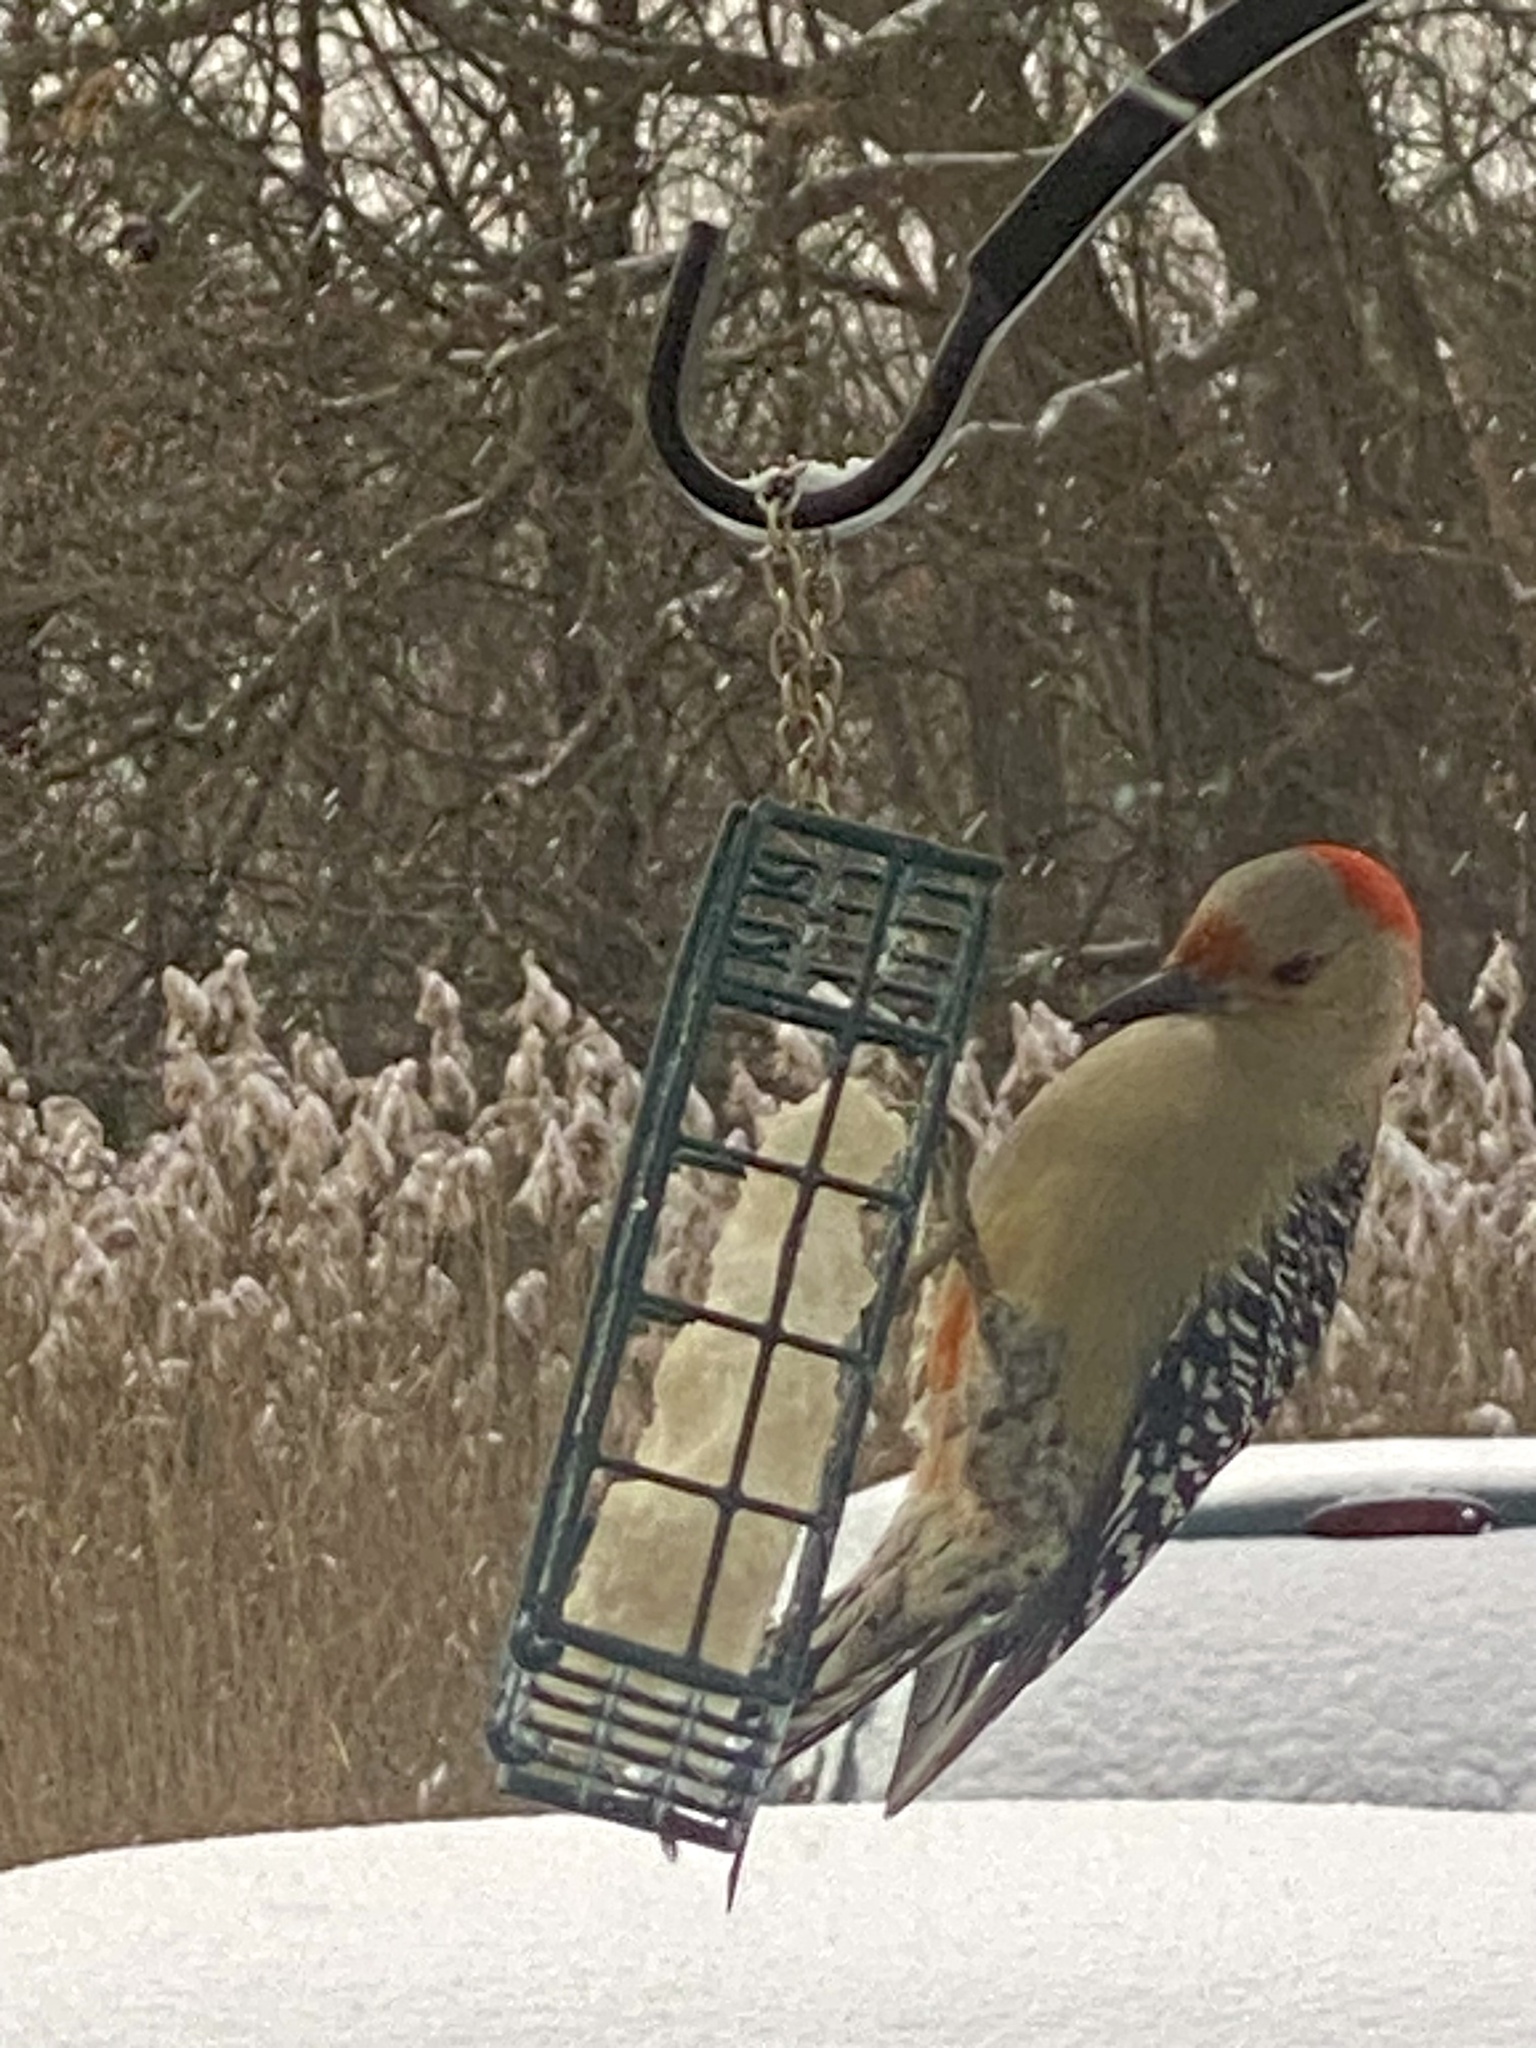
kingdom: Animalia
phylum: Chordata
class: Aves
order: Piciformes
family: Picidae
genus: Melanerpes
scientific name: Melanerpes carolinus
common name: Red-bellied woodpecker
